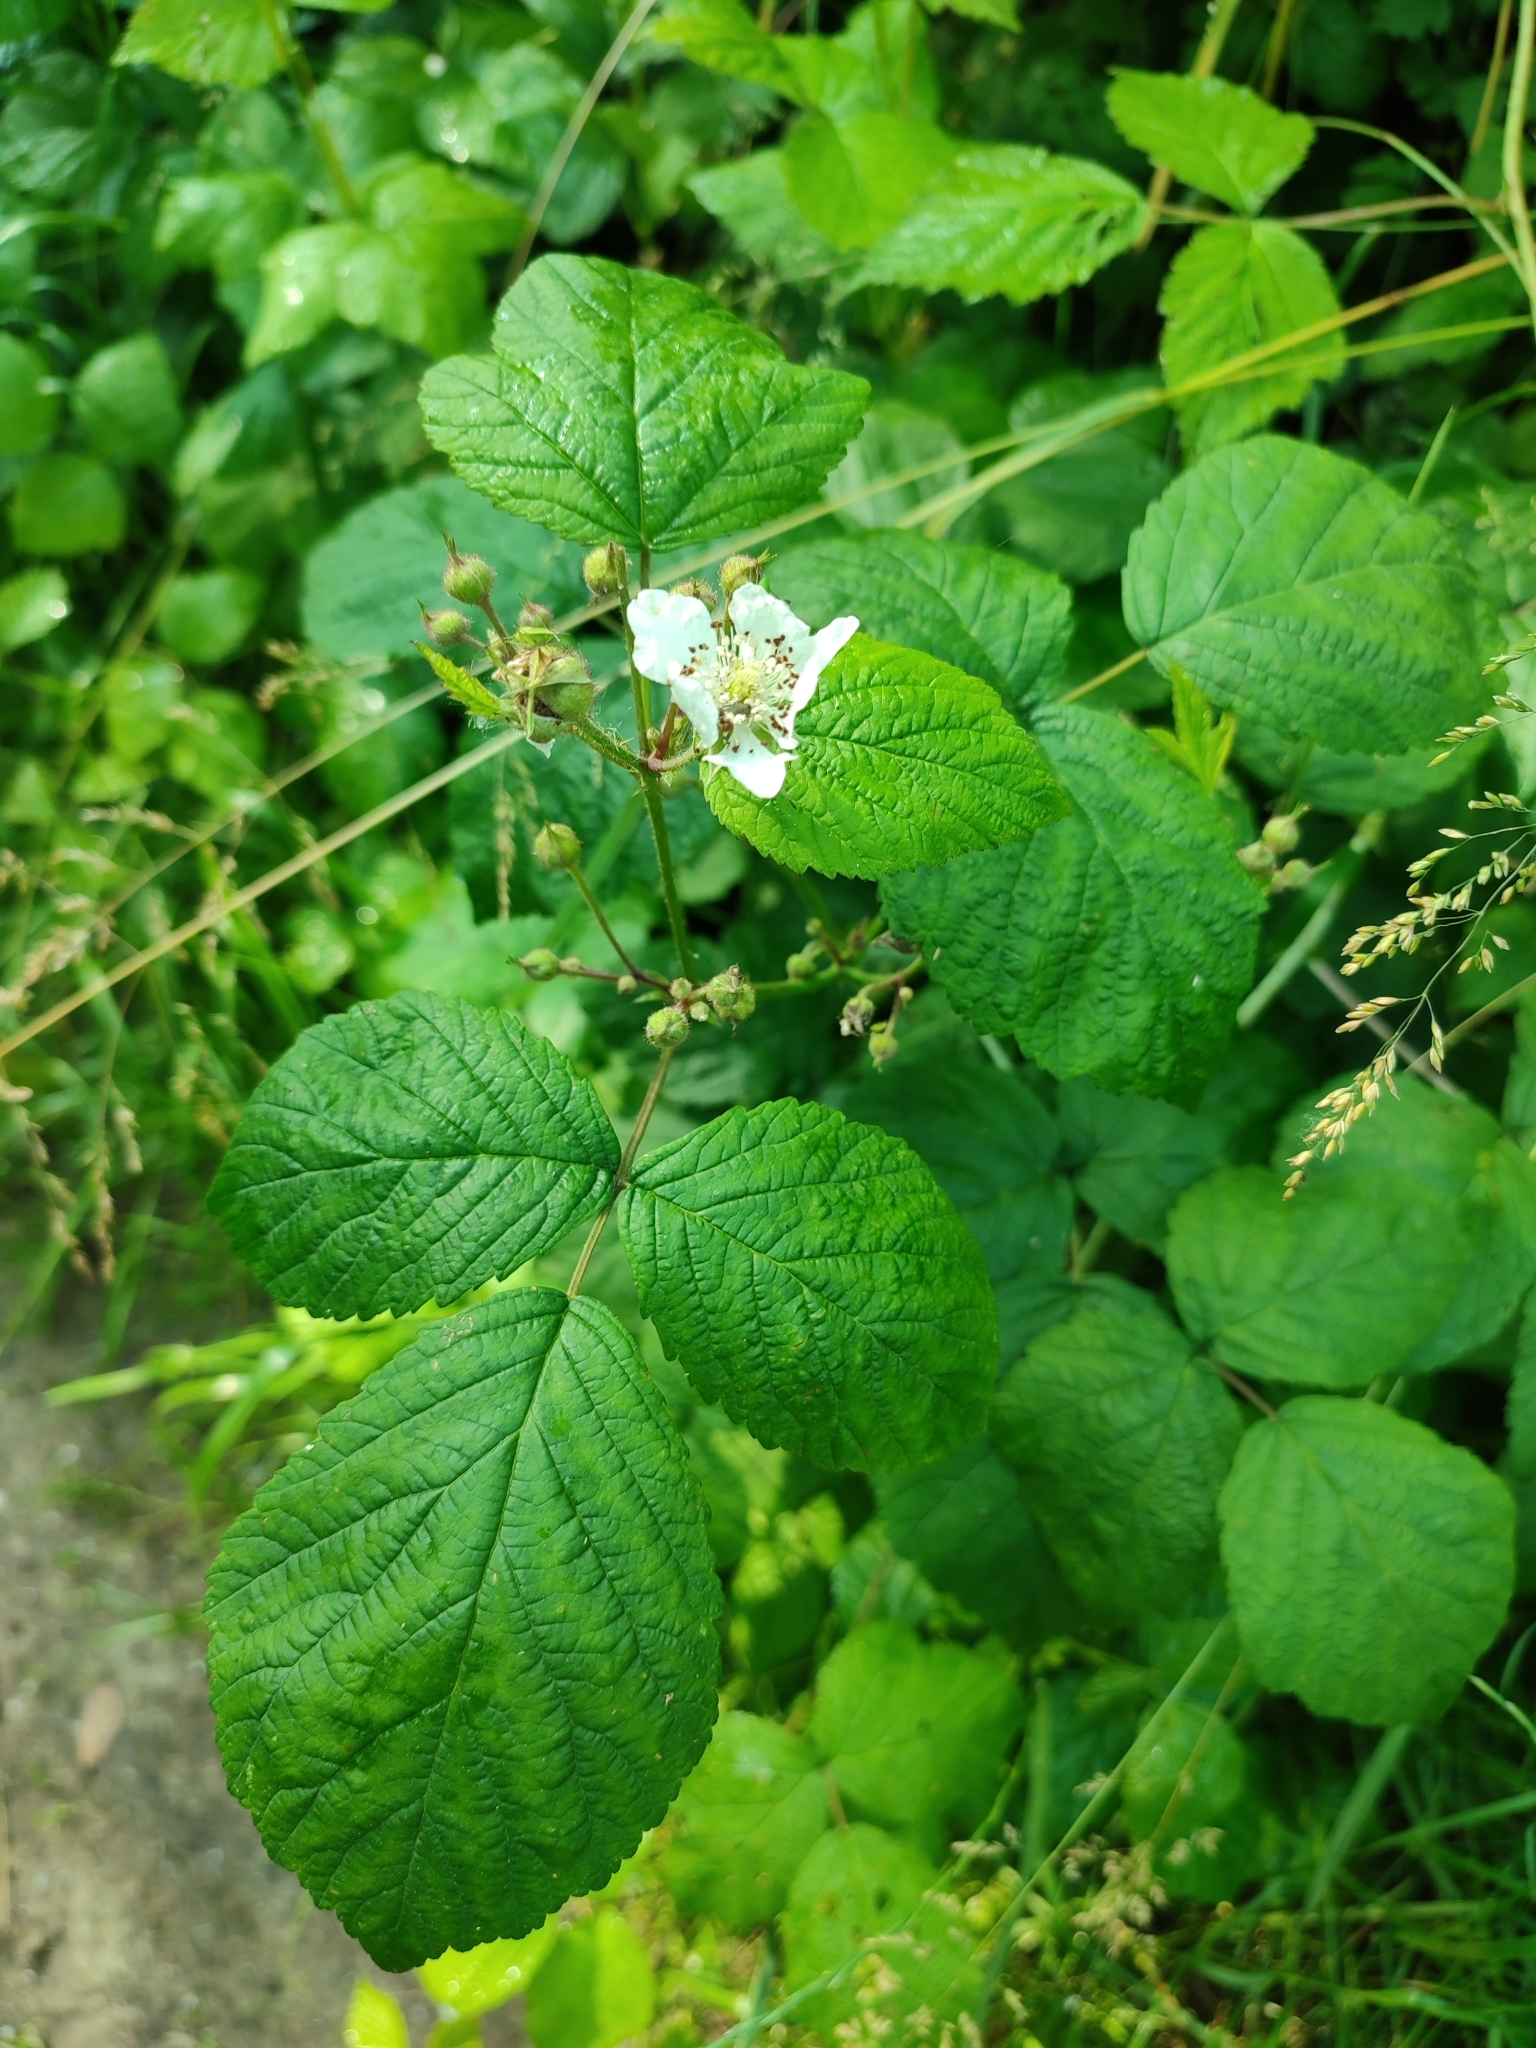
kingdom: Plantae
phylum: Tracheophyta
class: Magnoliopsida
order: Rosales
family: Rosaceae
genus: Rubus
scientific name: Rubus caesius
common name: Dewberry
